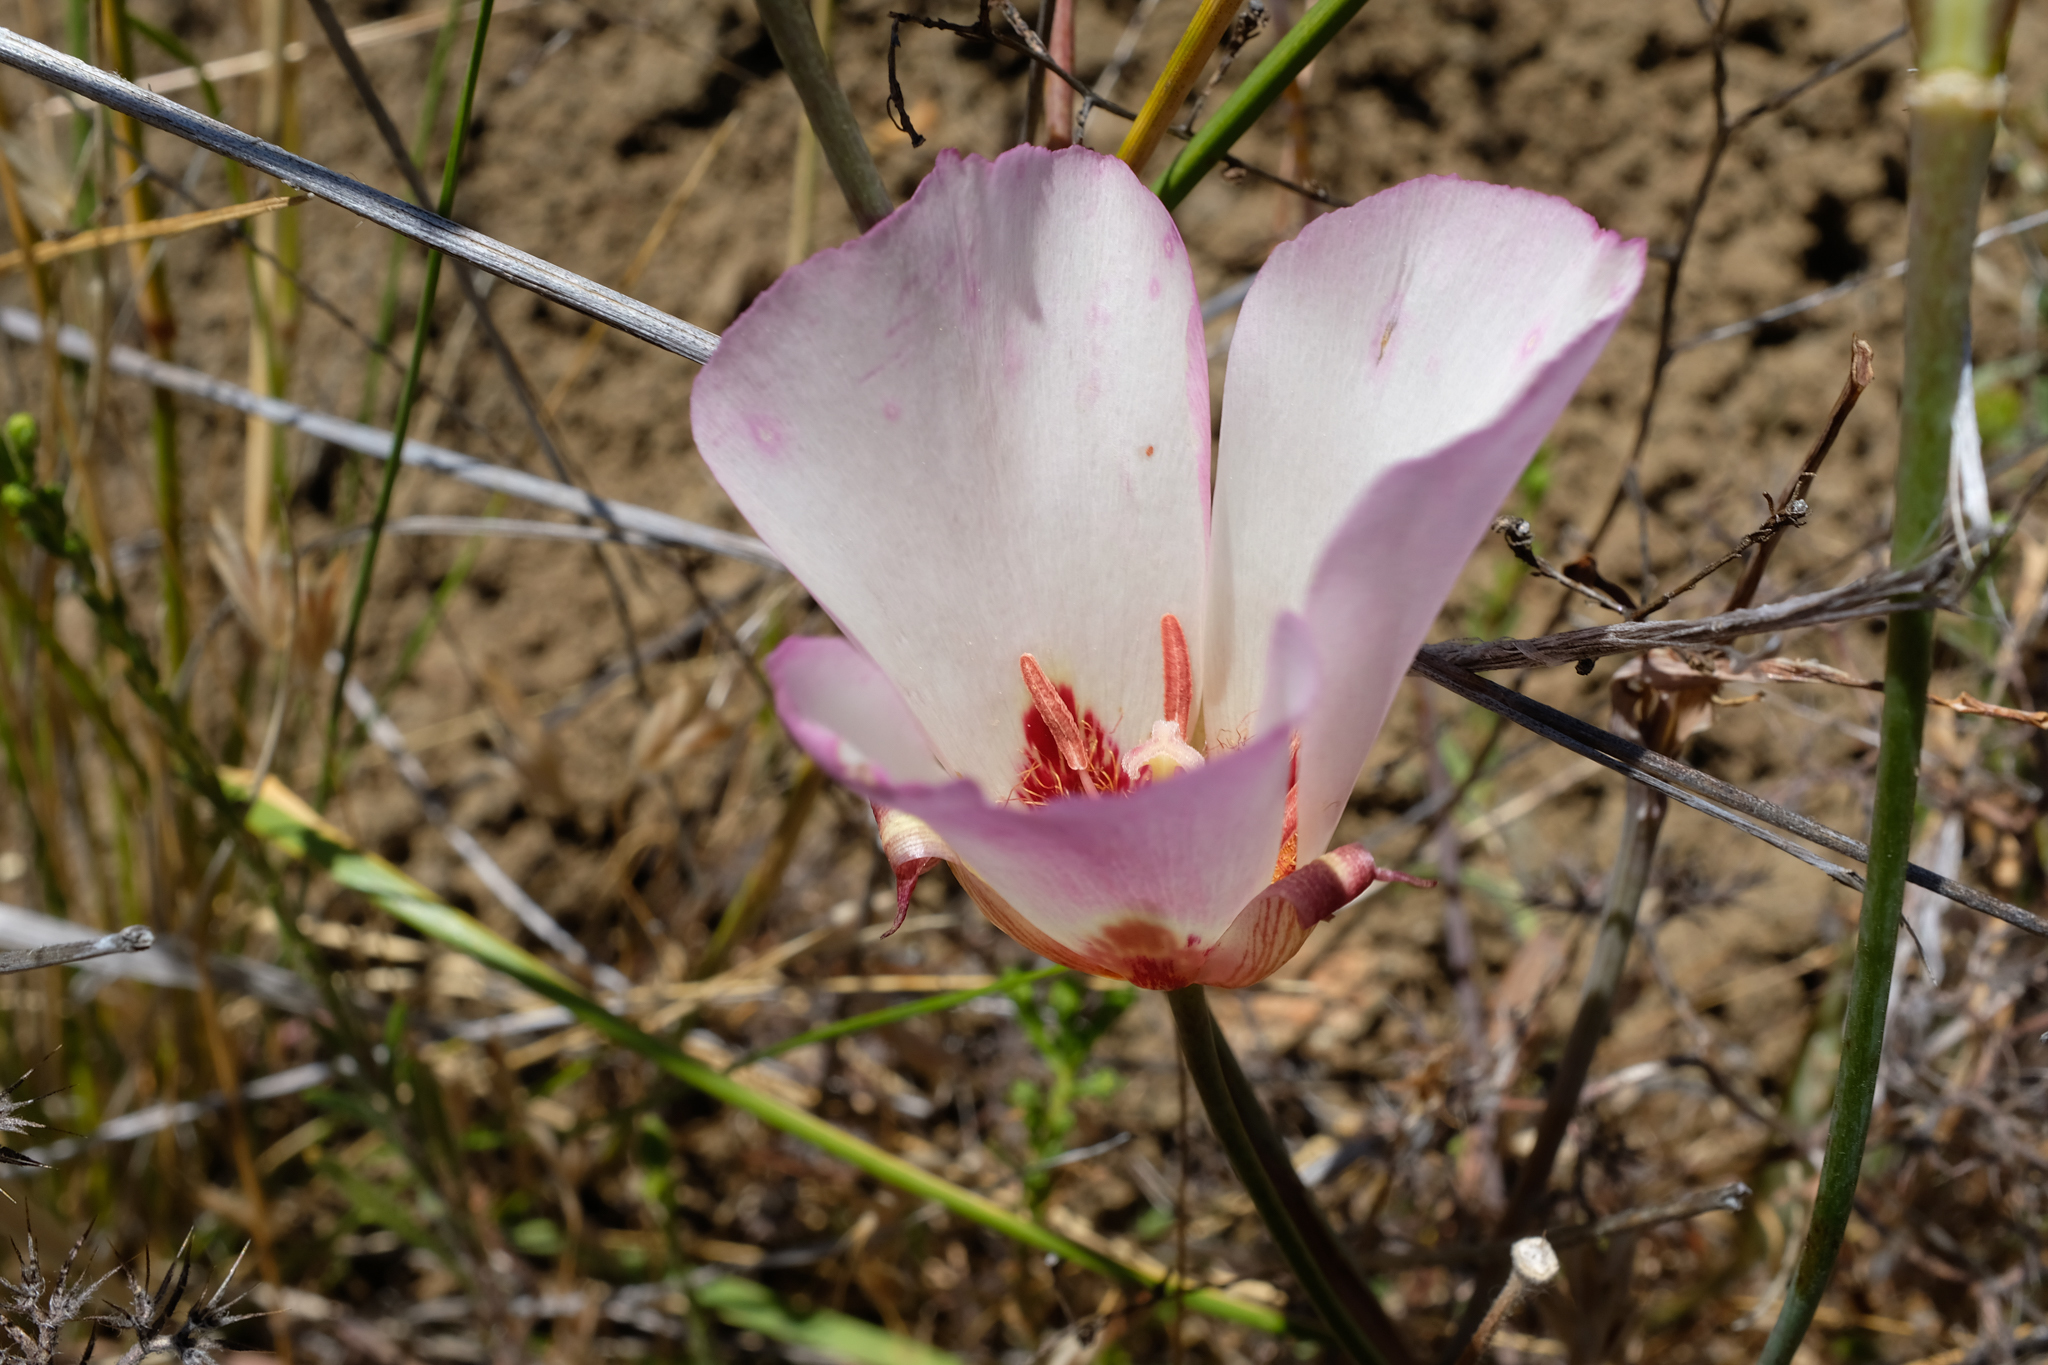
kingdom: Plantae
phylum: Tracheophyta
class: Liliopsida
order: Liliales
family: Liliaceae
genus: Calochortus
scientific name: Calochortus simulans
